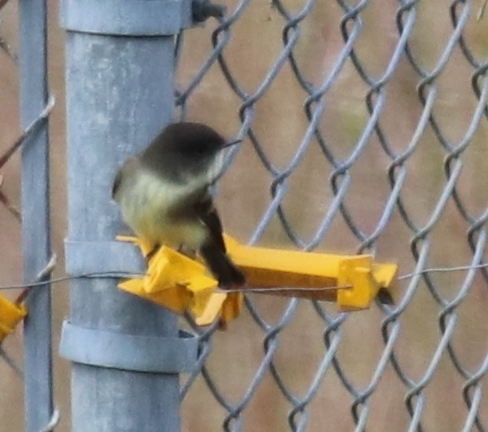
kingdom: Animalia
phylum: Chordata
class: Aves
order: Passeriformes
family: Tyrannidae
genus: Sayornis
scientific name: Sayornis phoebe
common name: Eastern phoebe
